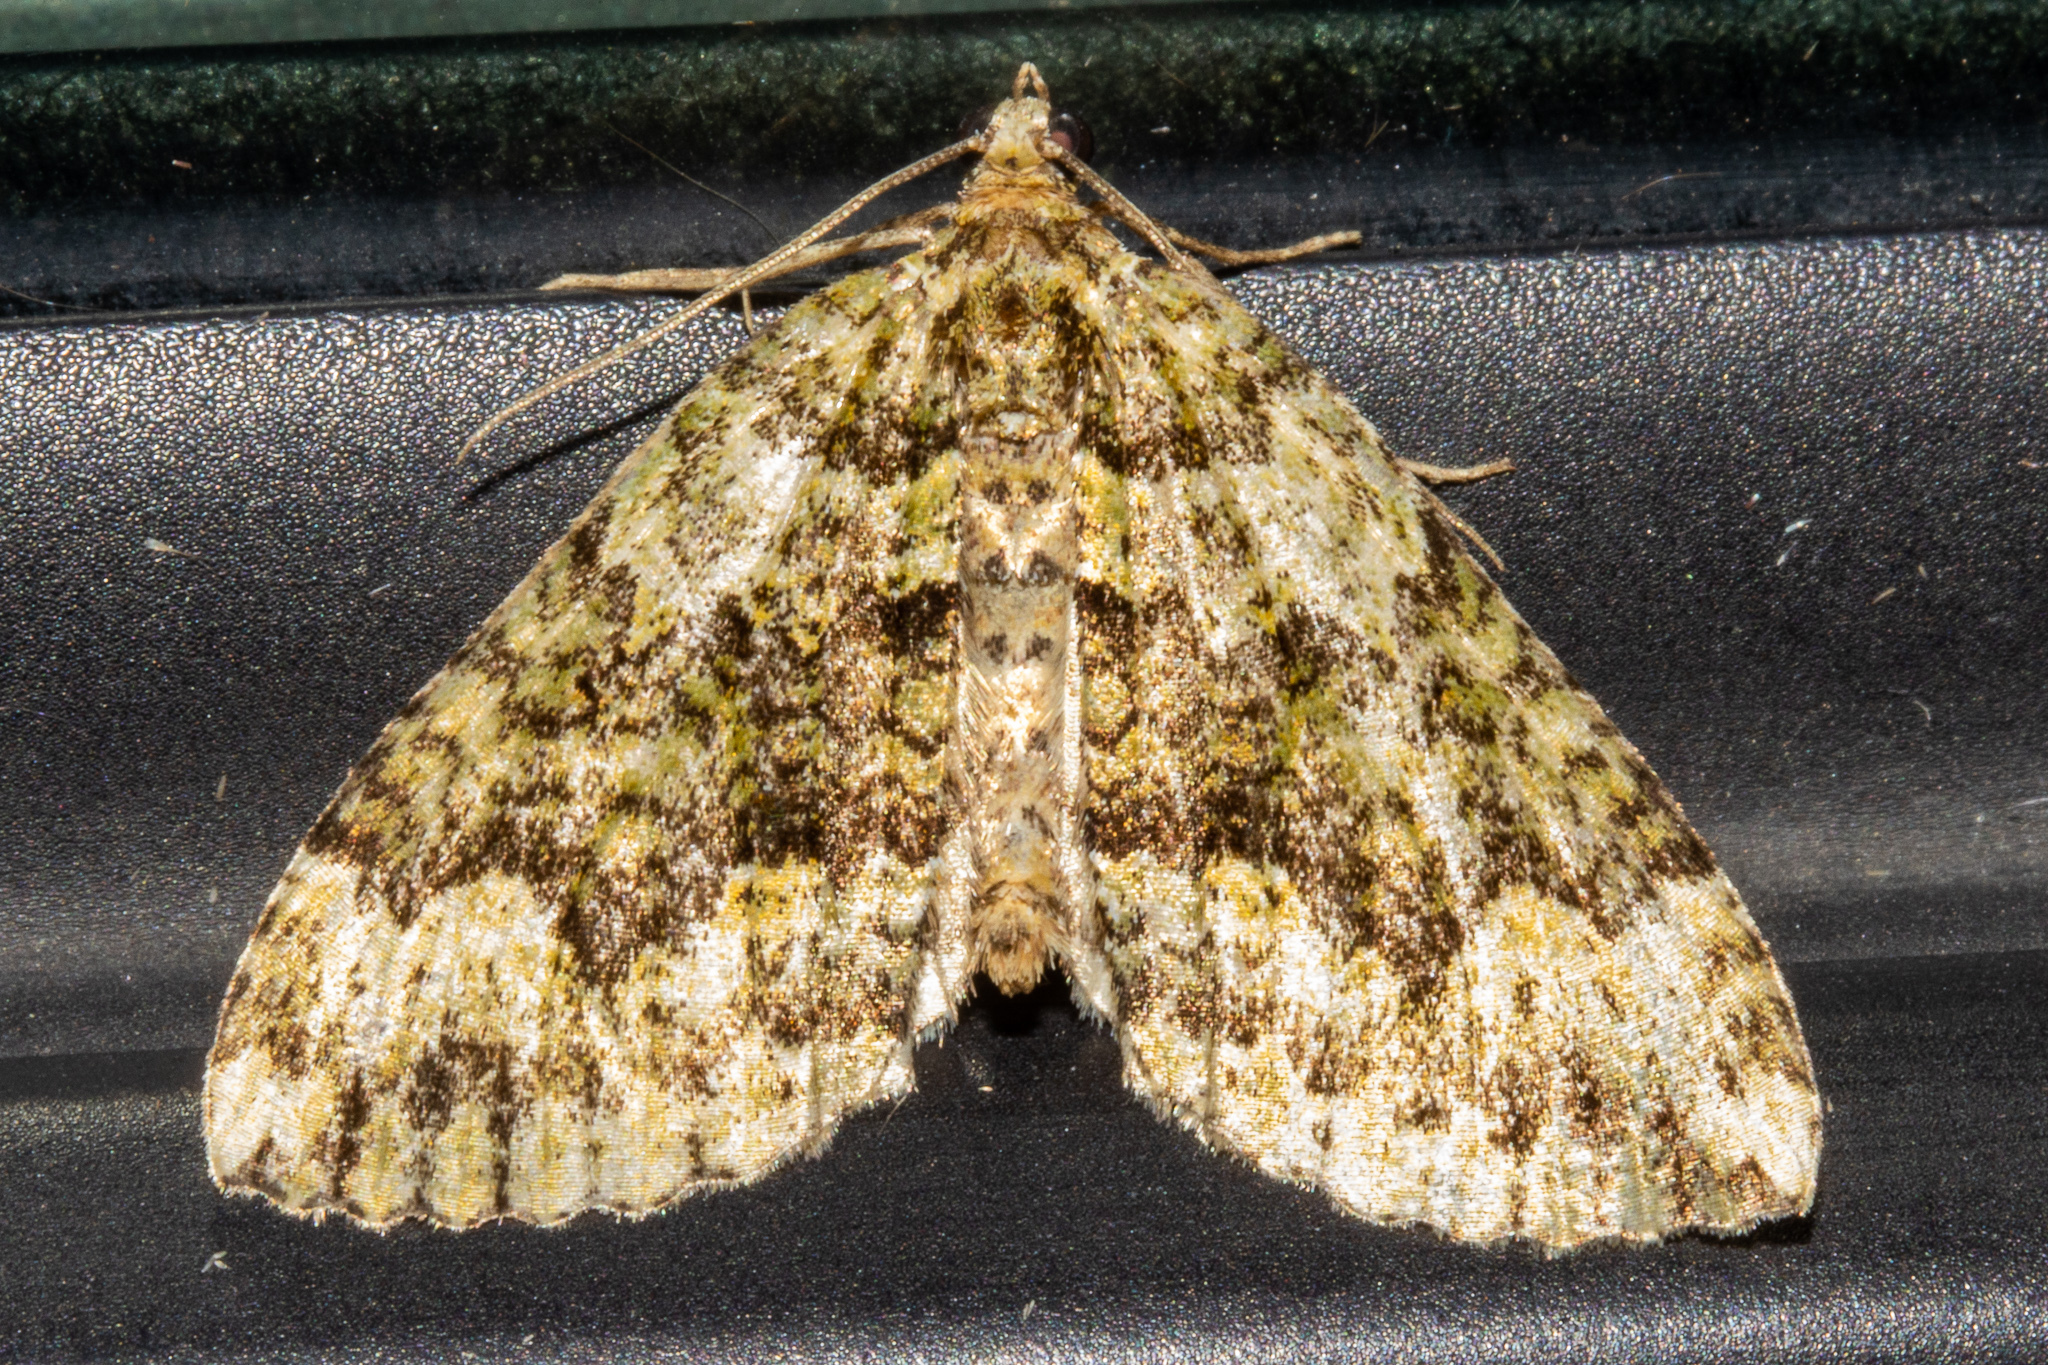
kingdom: Animalia
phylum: Arthropoda
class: Insecta
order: Lepidoptera
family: Geometridae
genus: Austrocidaria
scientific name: Austrocidaria callichlora
